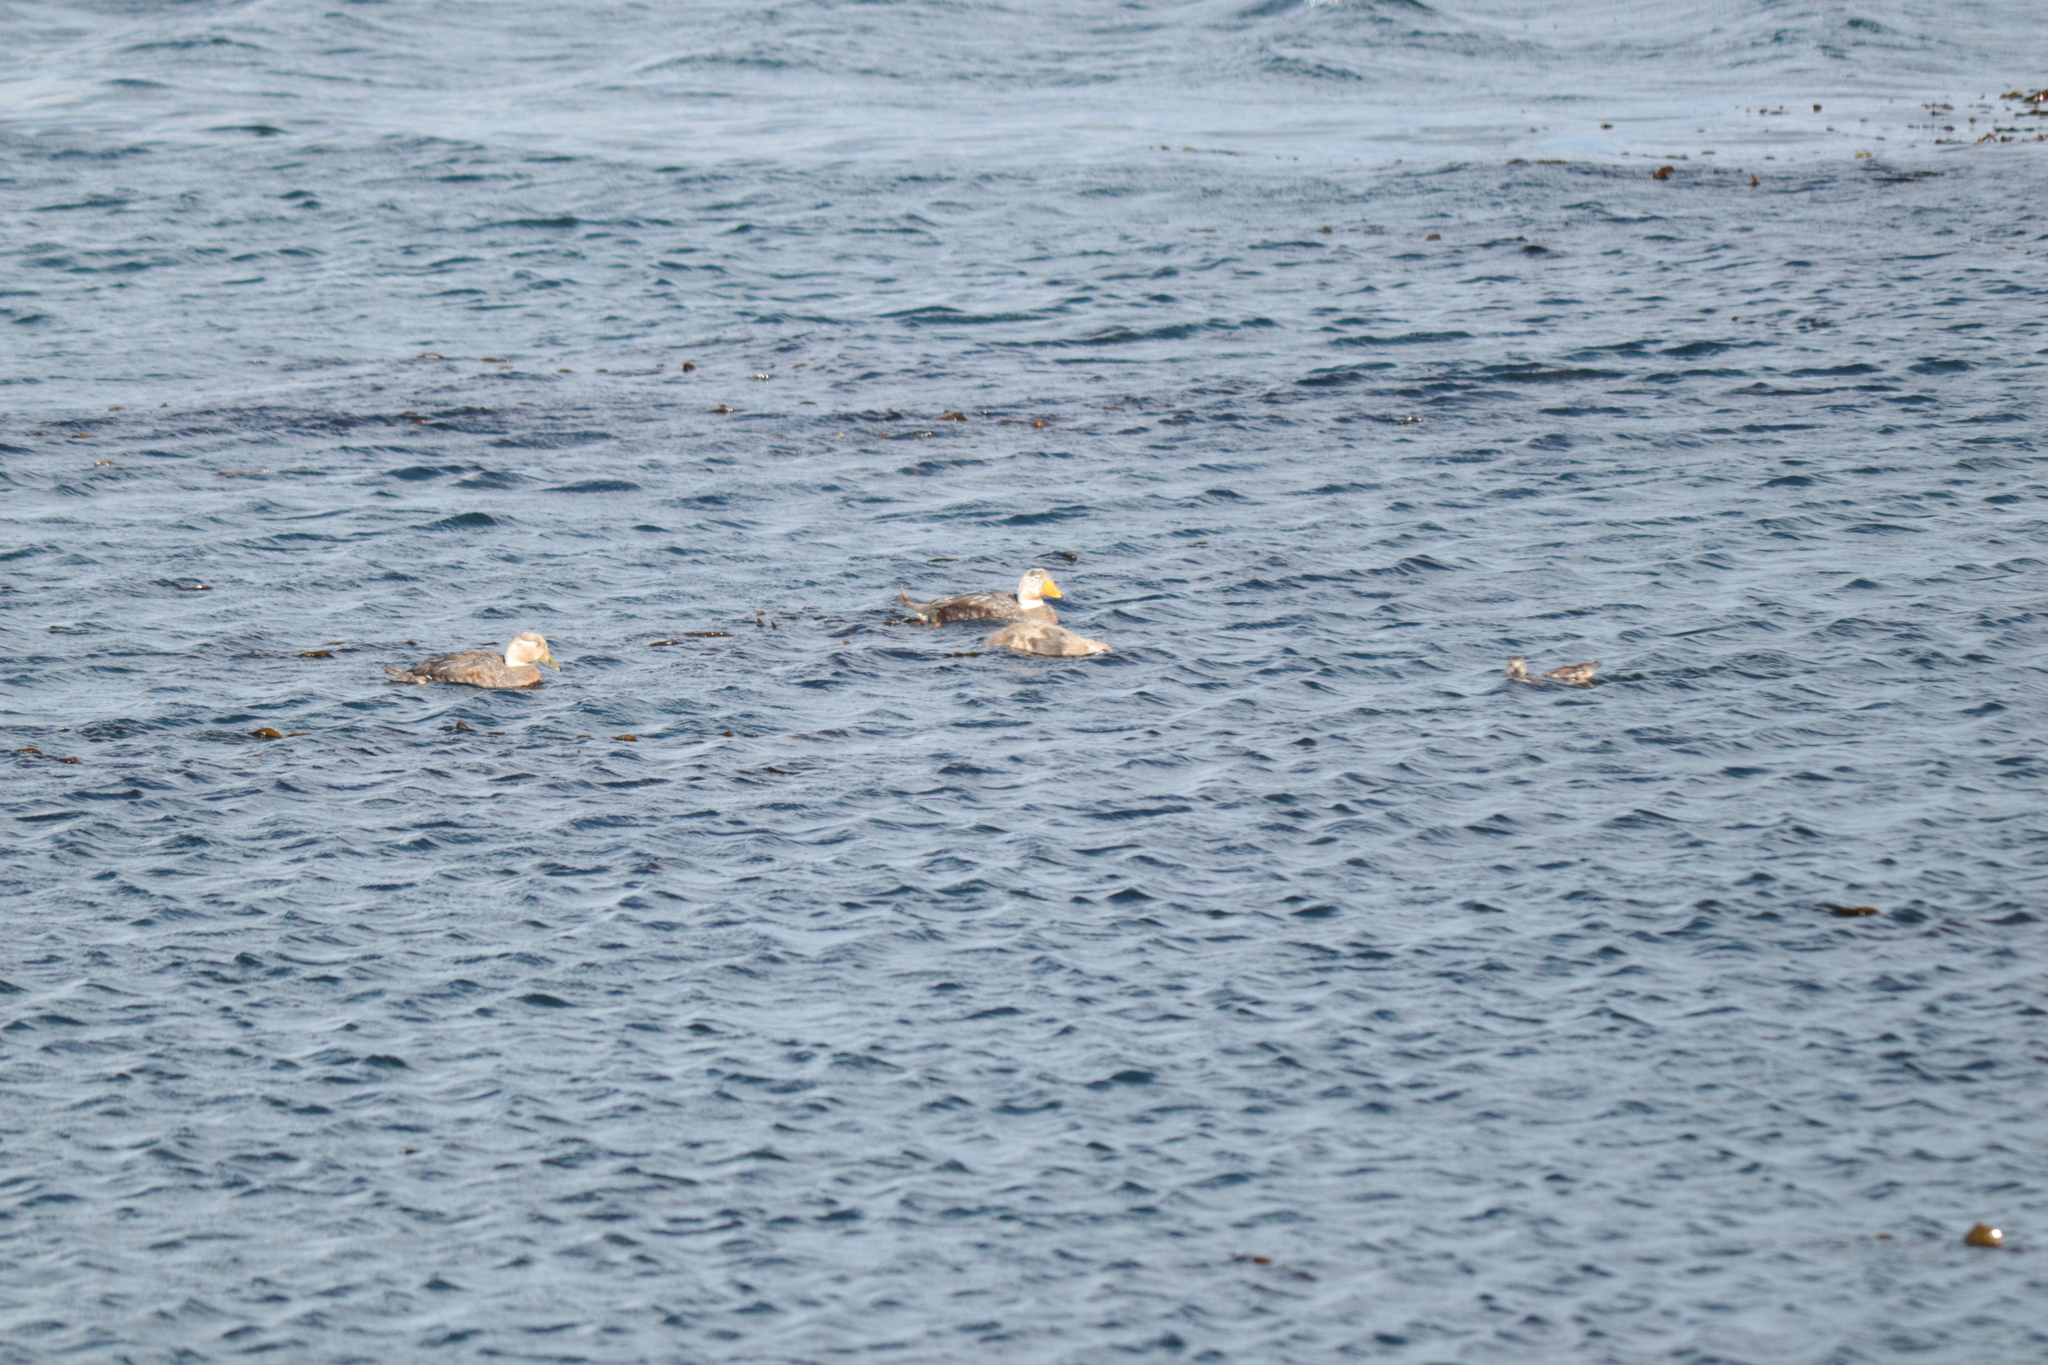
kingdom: Animalia
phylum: Chordata
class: Aves
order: Anseriformes
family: Anatidae
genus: Tachyeres
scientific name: Tachyeres patachonicus
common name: Flying steamer duck
